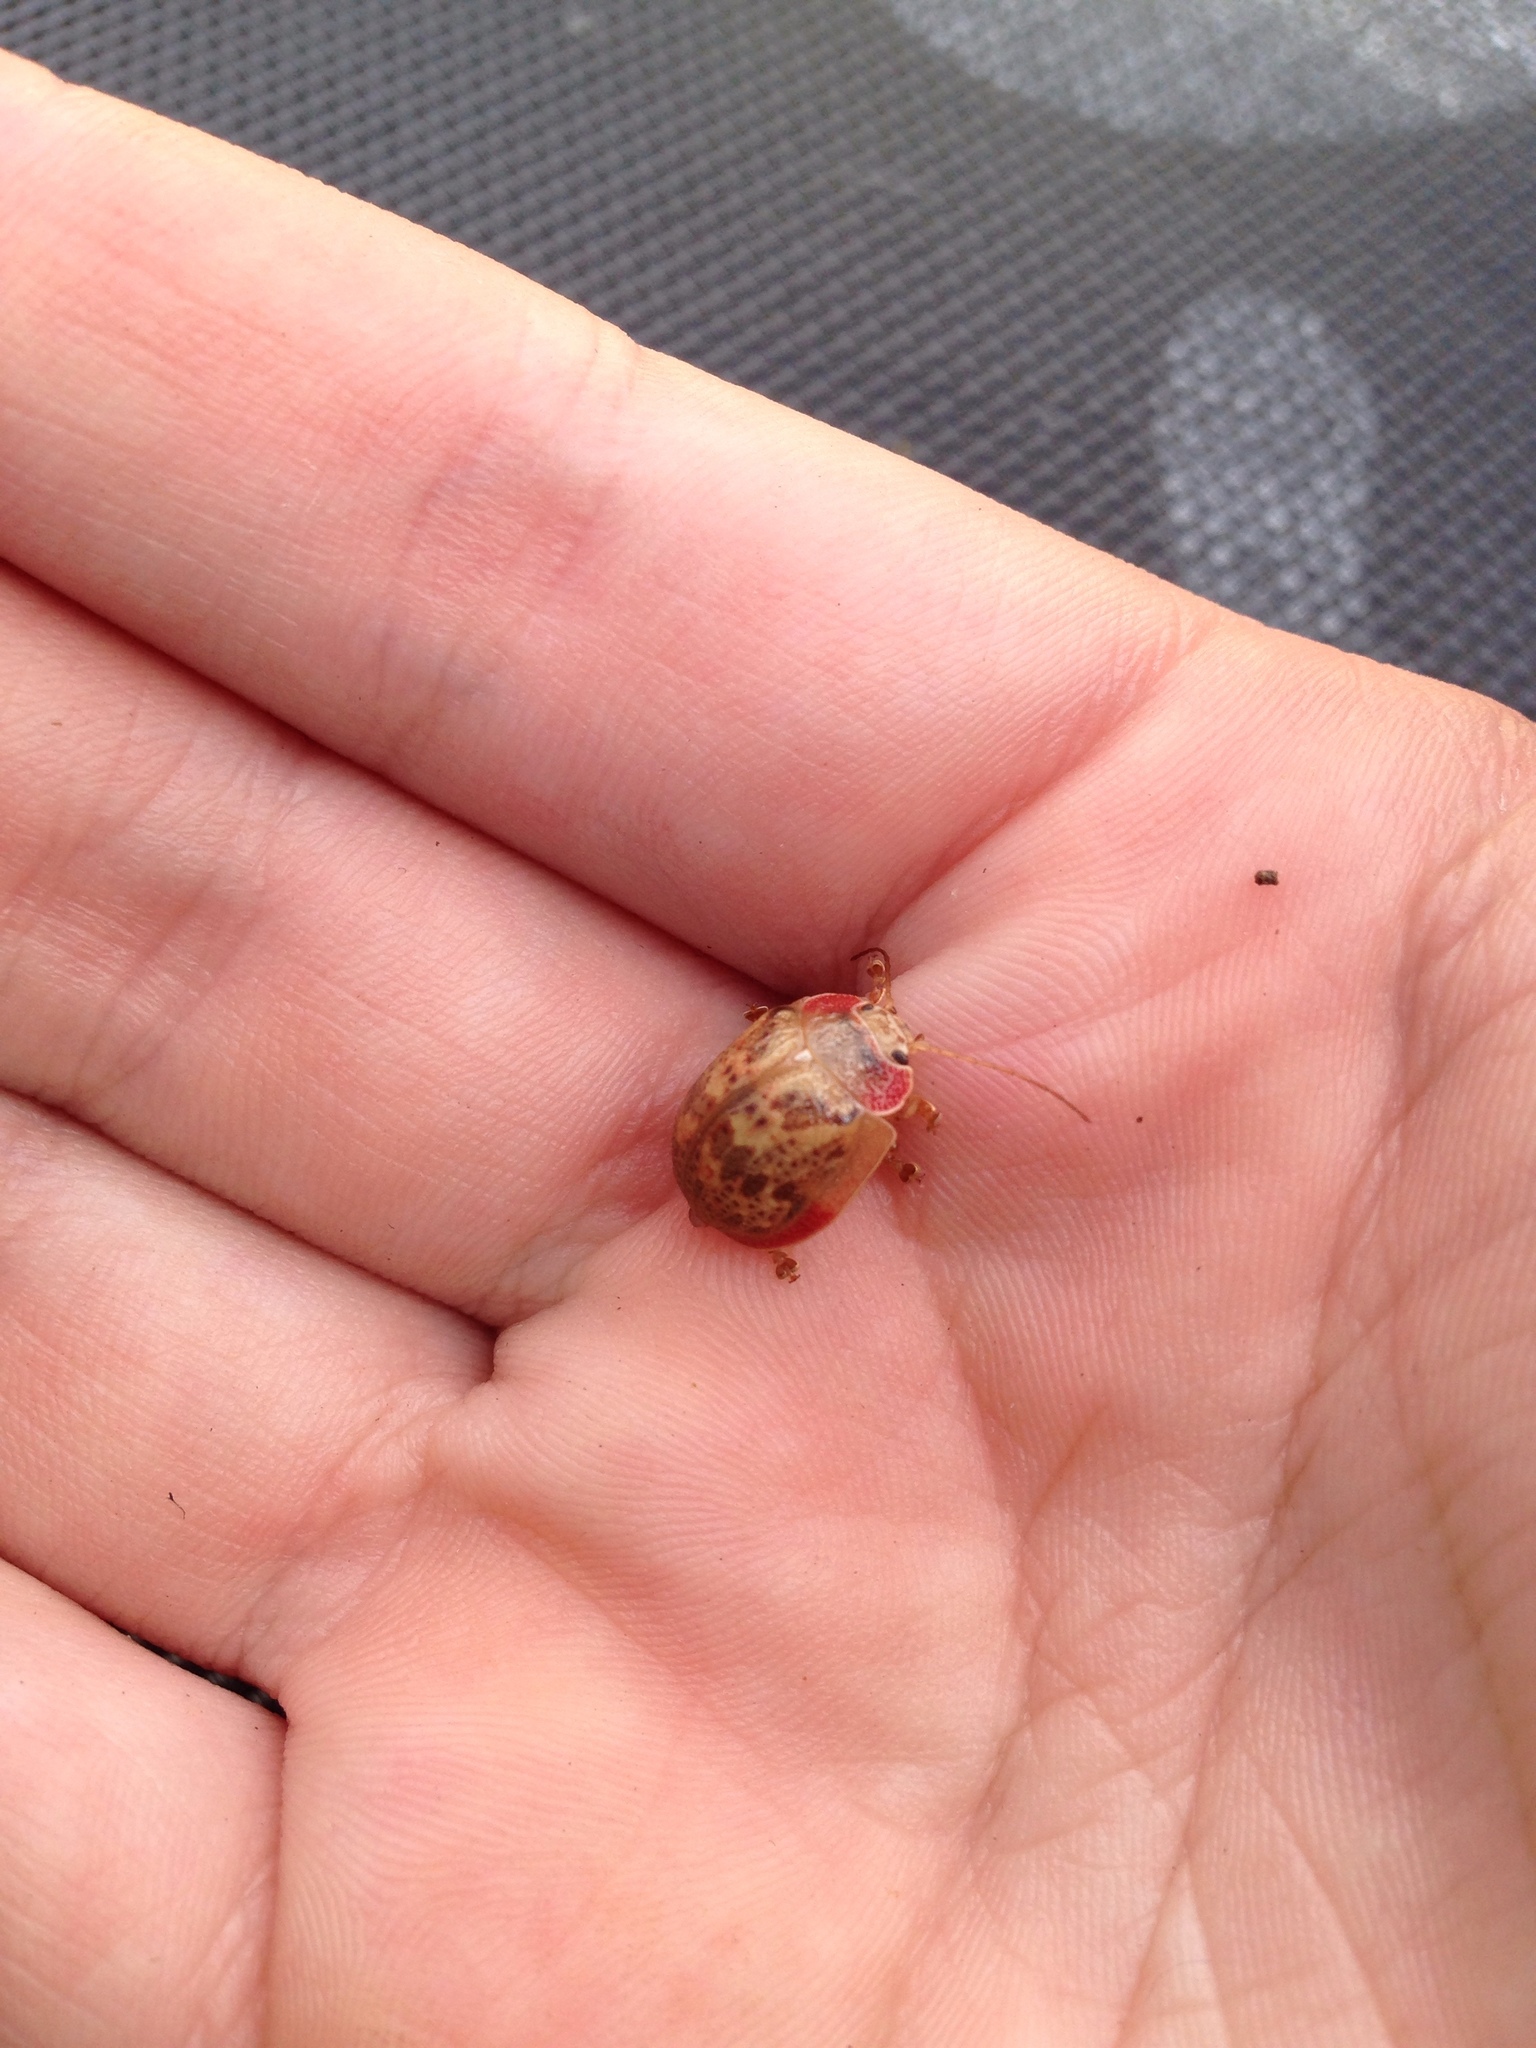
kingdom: Animalia
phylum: Arthropoda
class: Insecta
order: Coleoptera
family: Chrysomelidae
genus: Paropsis
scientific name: Paropsis charybdis
